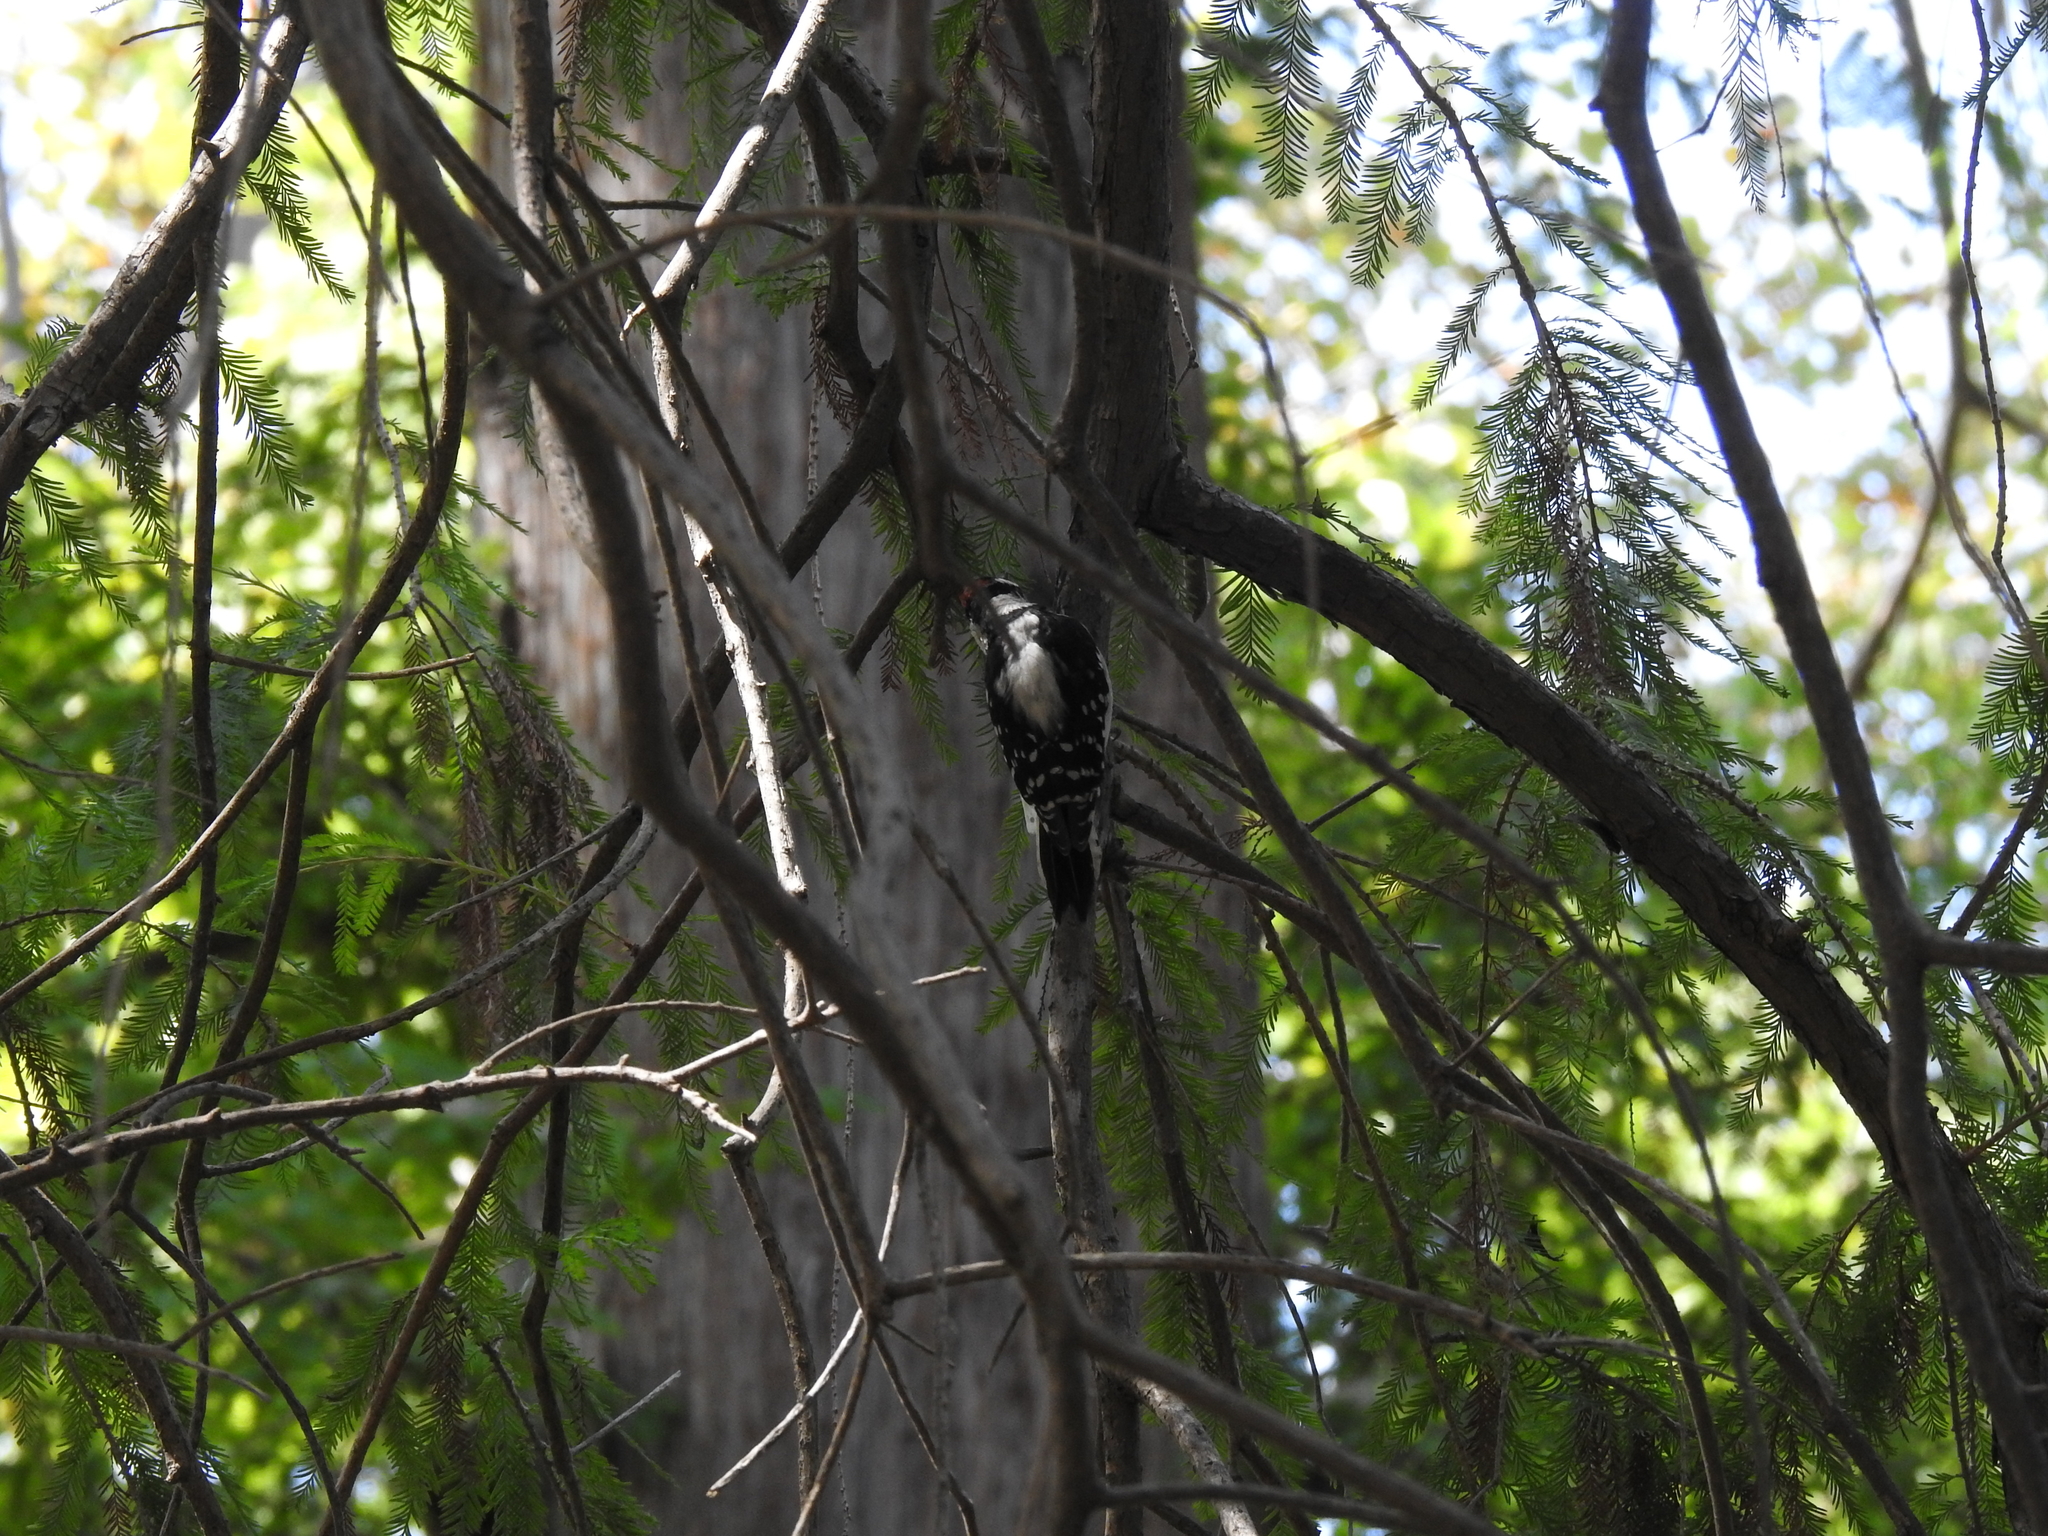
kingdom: Animalia
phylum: Chordata
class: Aves
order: Piciformes
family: Picidae
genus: Dryobates
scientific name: Dryobates pubescens
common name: Downy woodpecker
